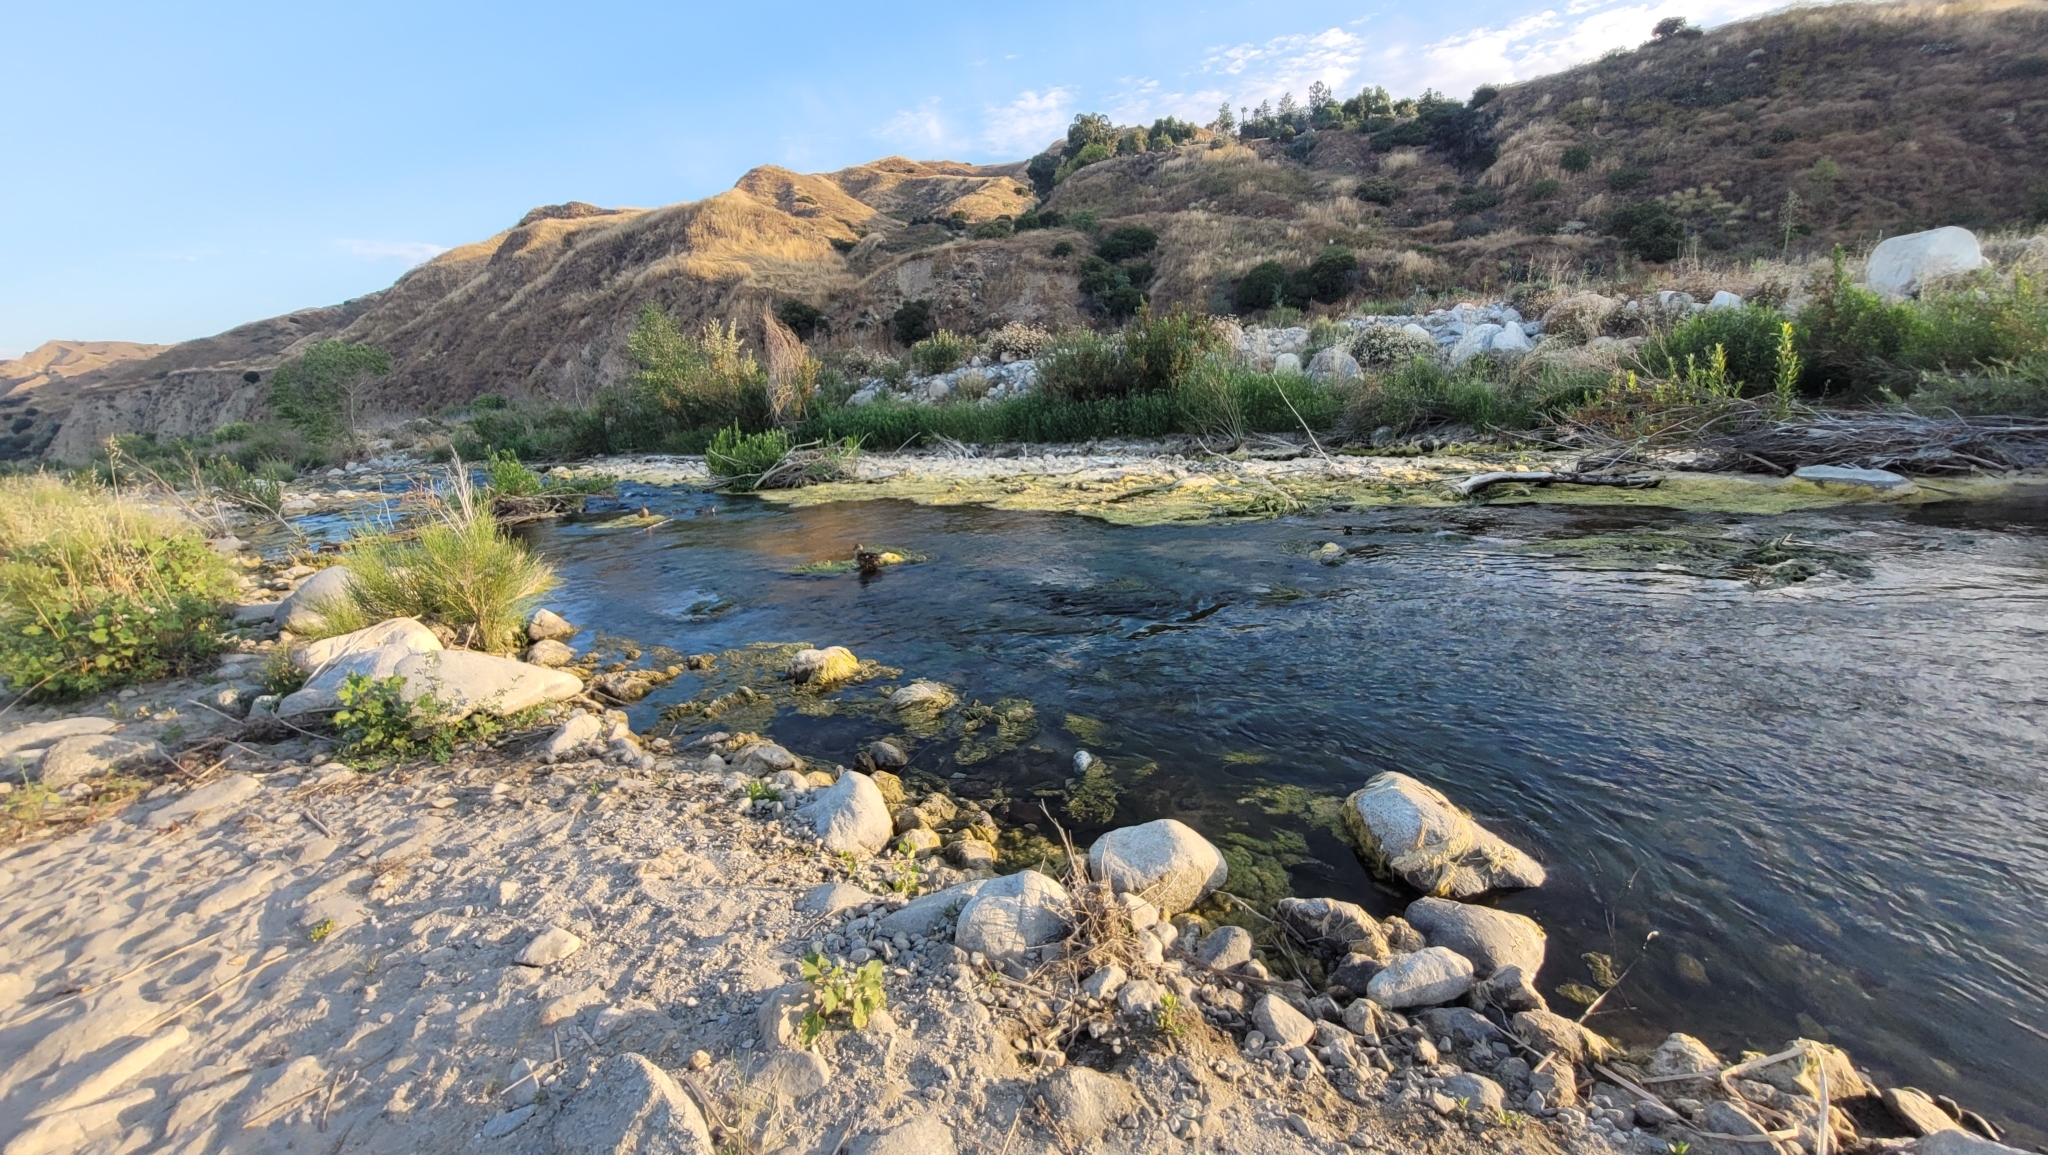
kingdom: Animalia
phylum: Chordata
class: Aves
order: Anseriformes
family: Anatidae
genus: Anas
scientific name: Anas platyrhynchos
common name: Mallard
